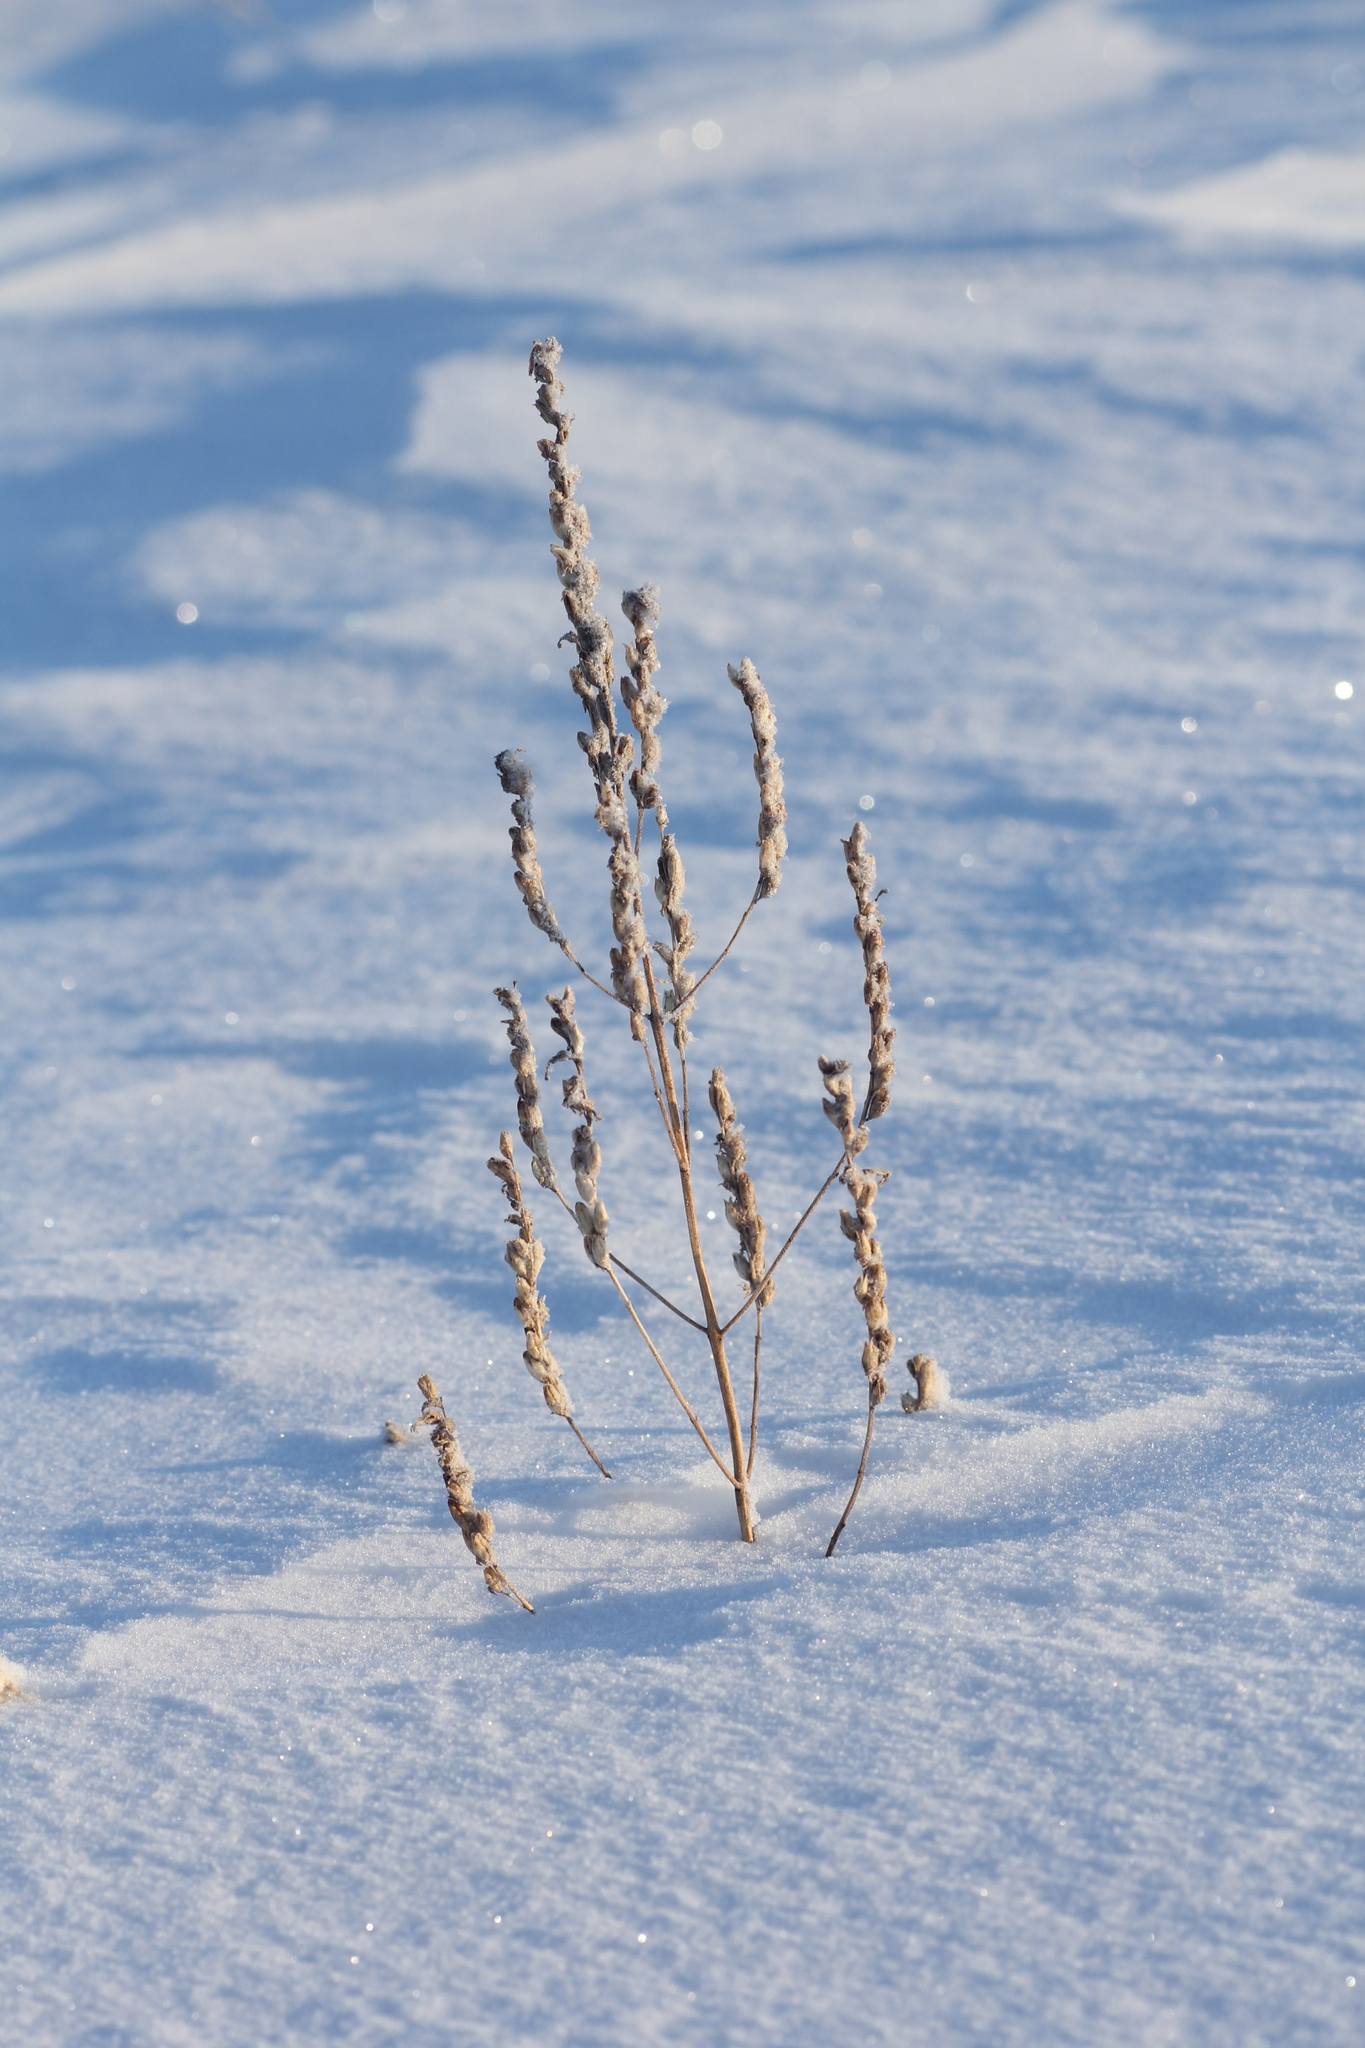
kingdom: Plantae
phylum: Tracheophyta
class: Magnoliopsida
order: Lamiales
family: Orobanchaceae
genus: Odontites
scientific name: Odontites vulgaris
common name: Broomrape
